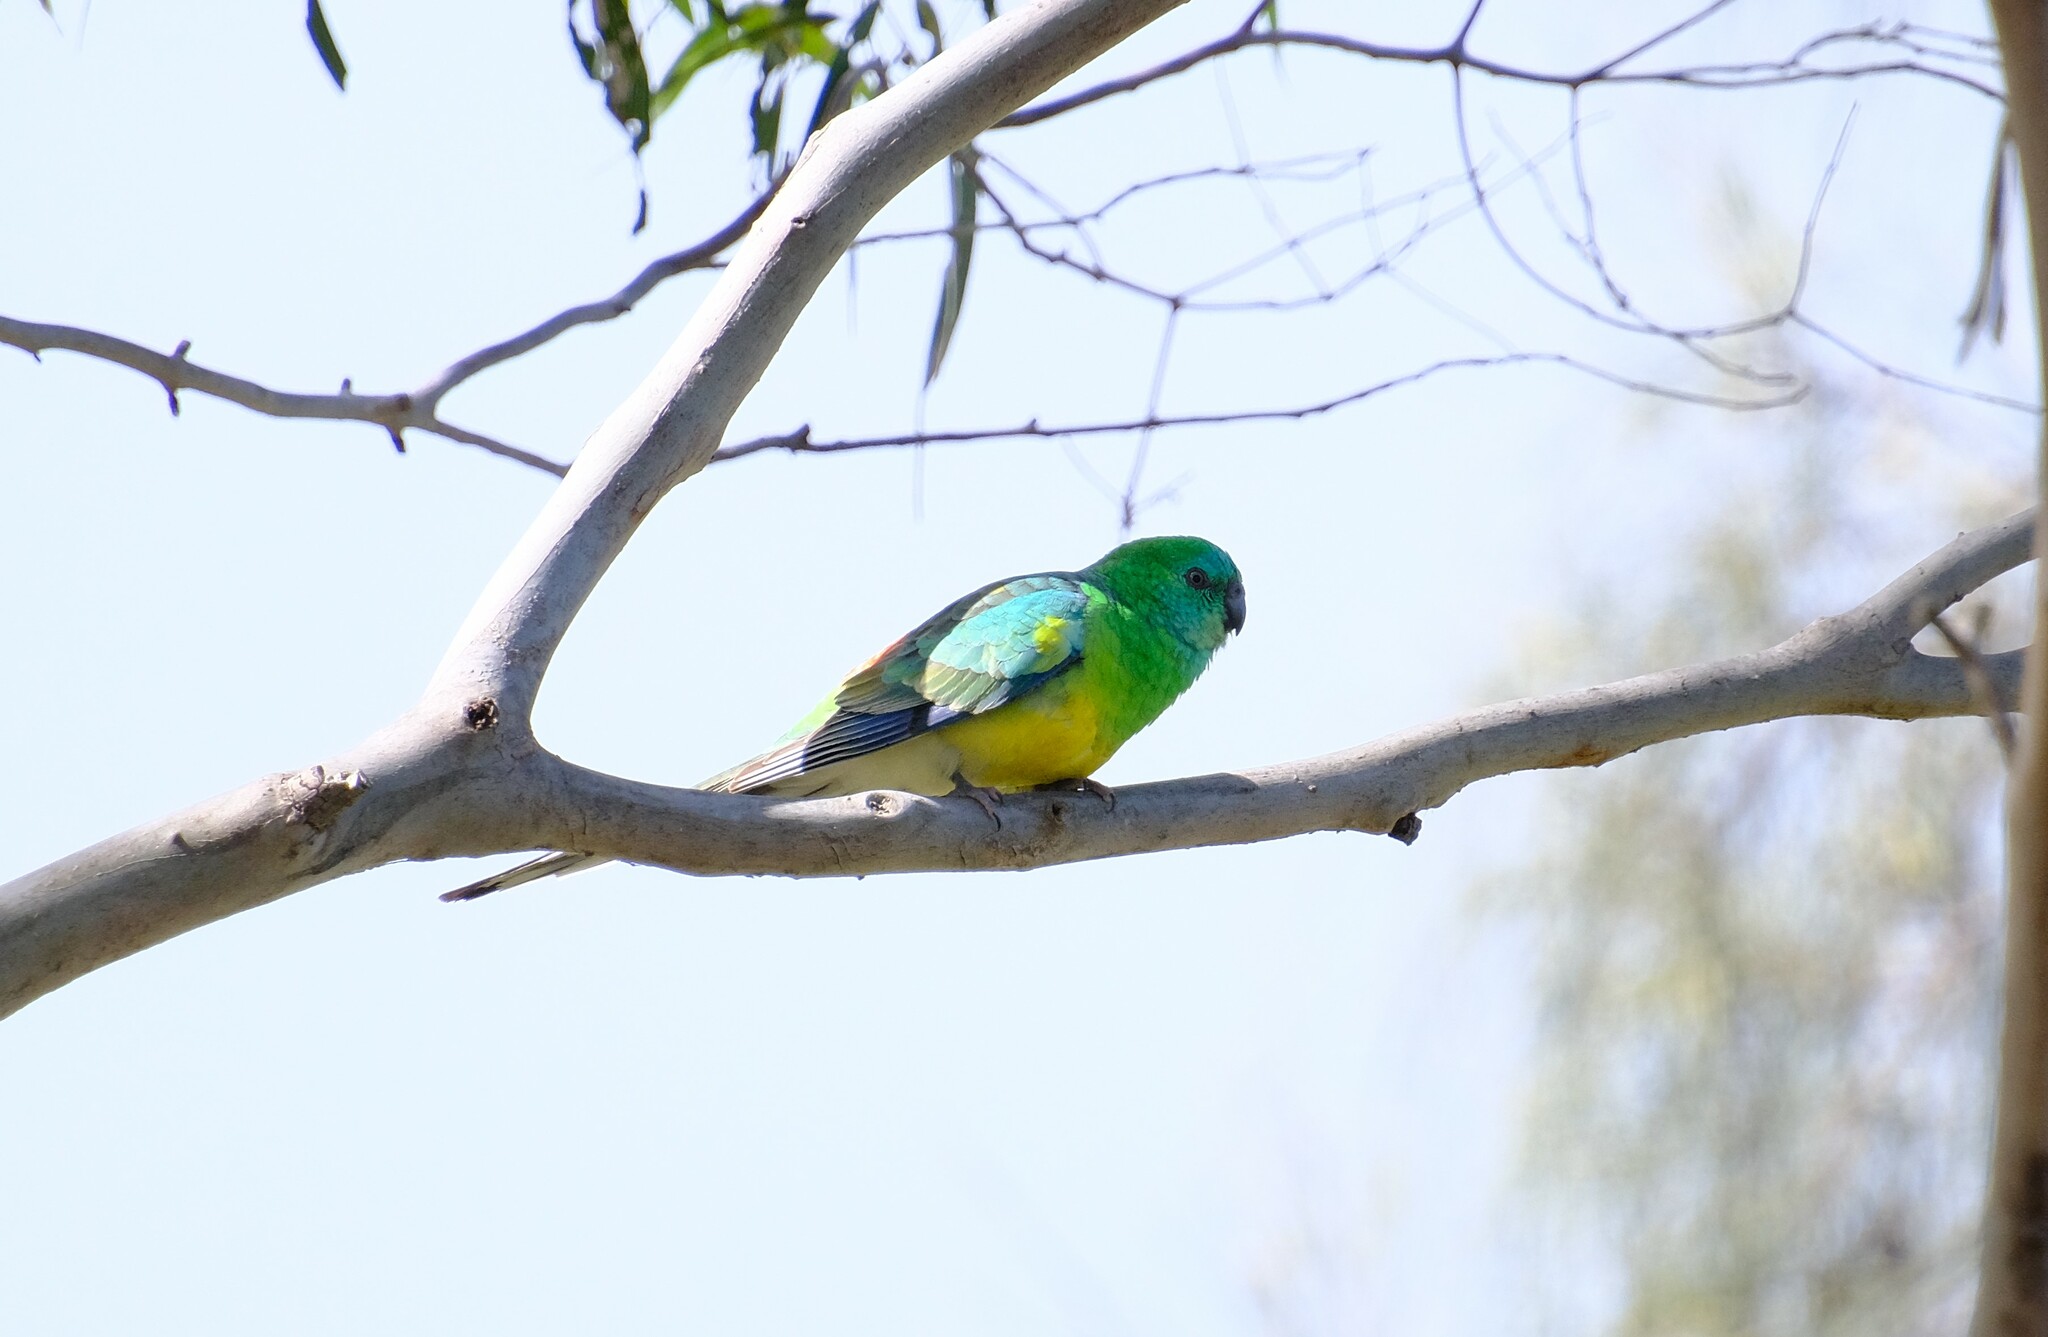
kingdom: Animalia
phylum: Chordata
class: Aves
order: Psittaciformes
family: Psittacidae
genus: Psephotus
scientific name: Psephotus haematonotus
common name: Red-rumped parrot
